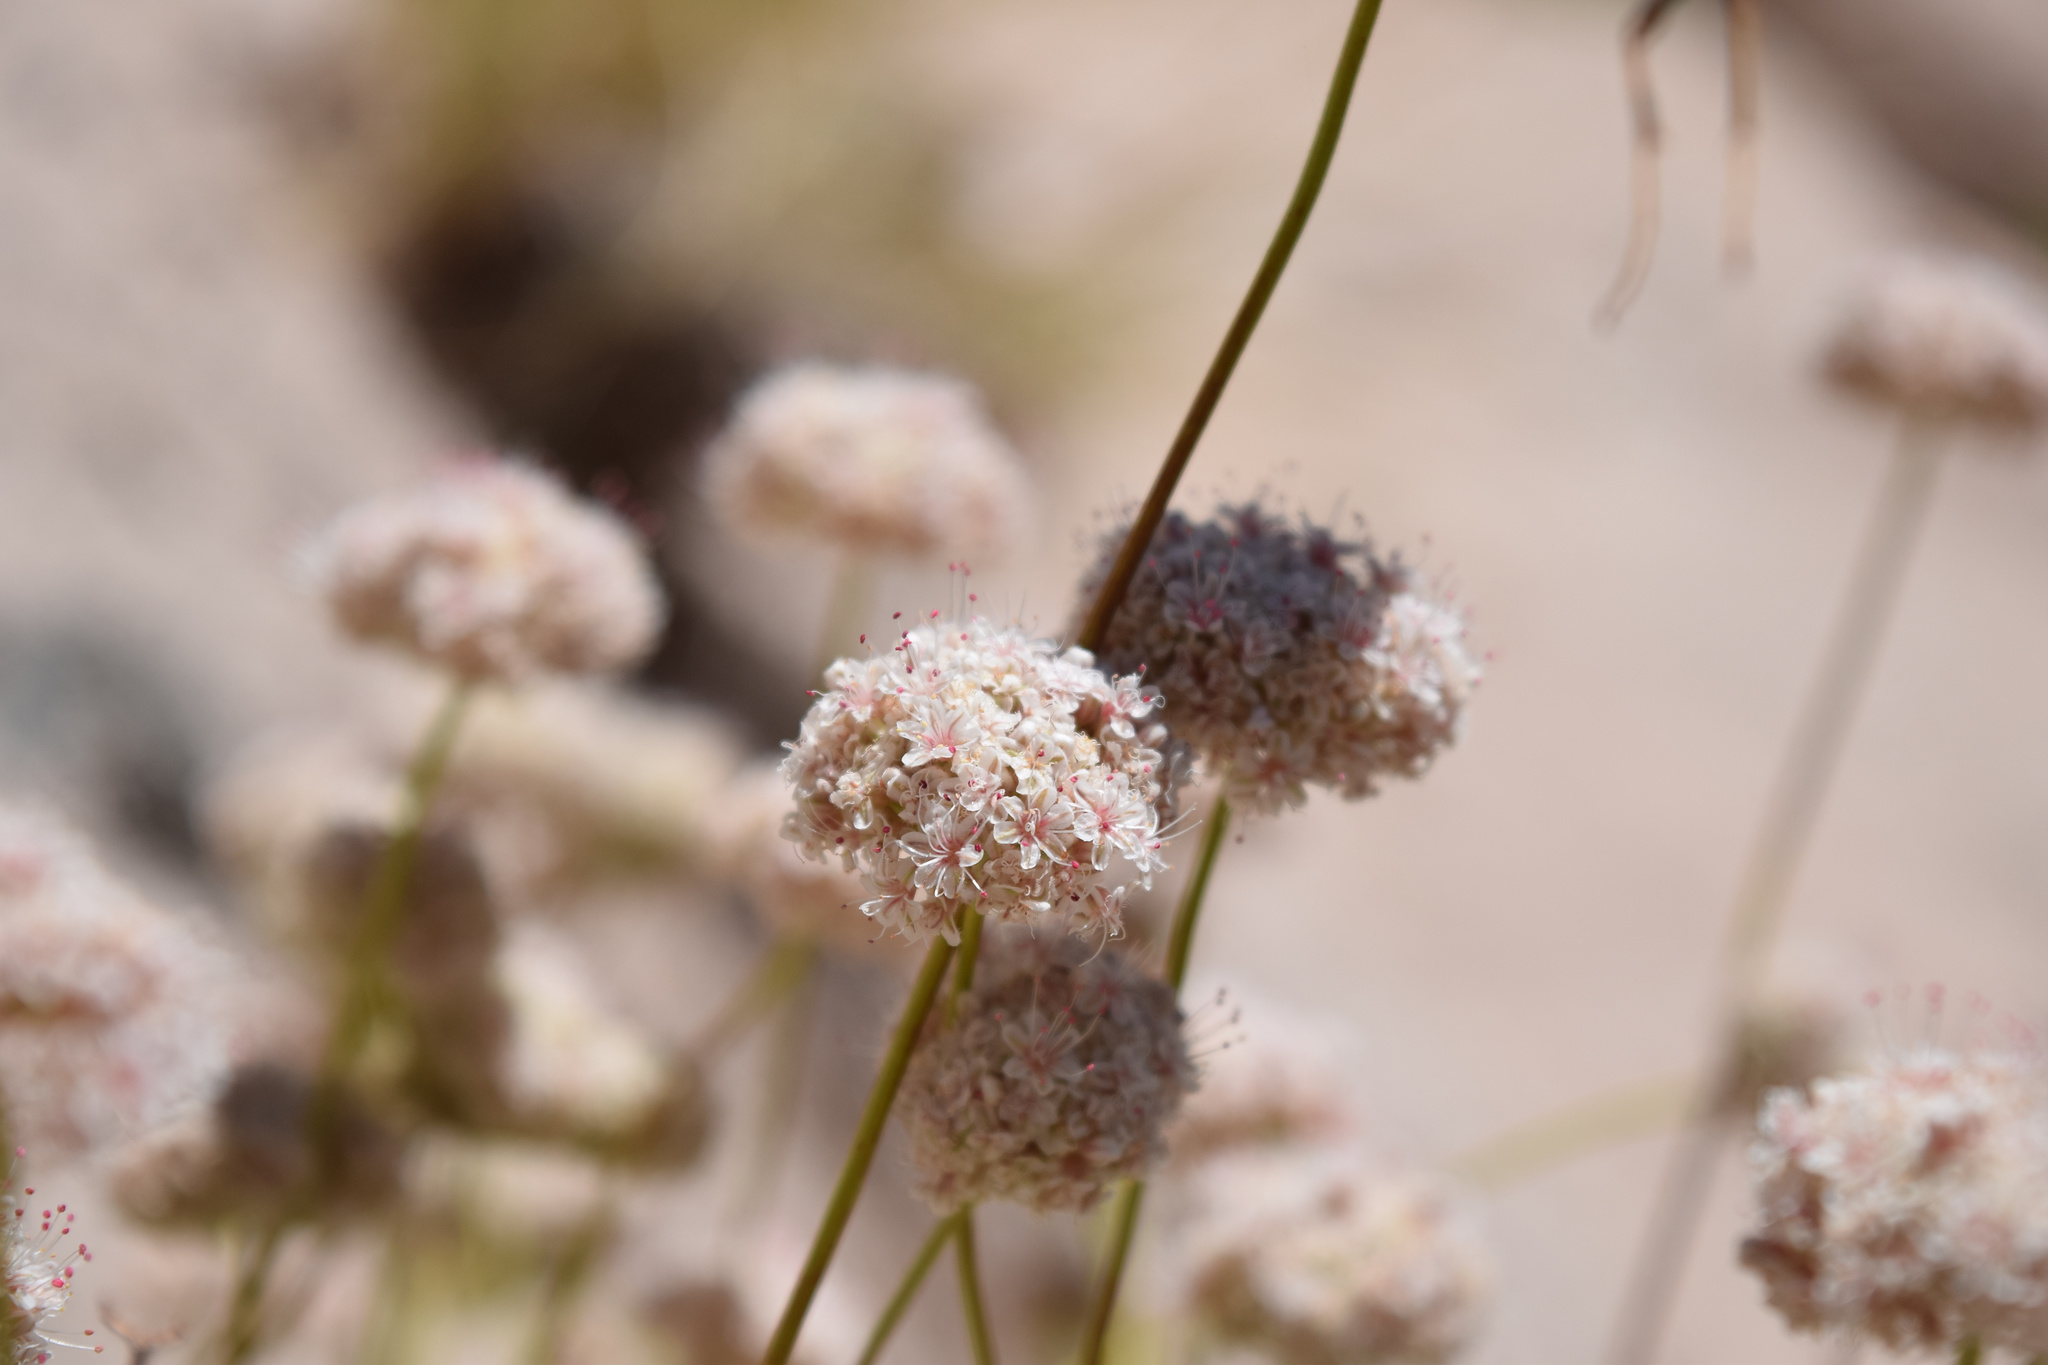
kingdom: Plantae
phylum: Tracheophyta
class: Magnoliopsida
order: Caryophyllales
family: Polygonaceae
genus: Eriogonum
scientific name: Eriogonum fasciculatum
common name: California wild buckwheat
